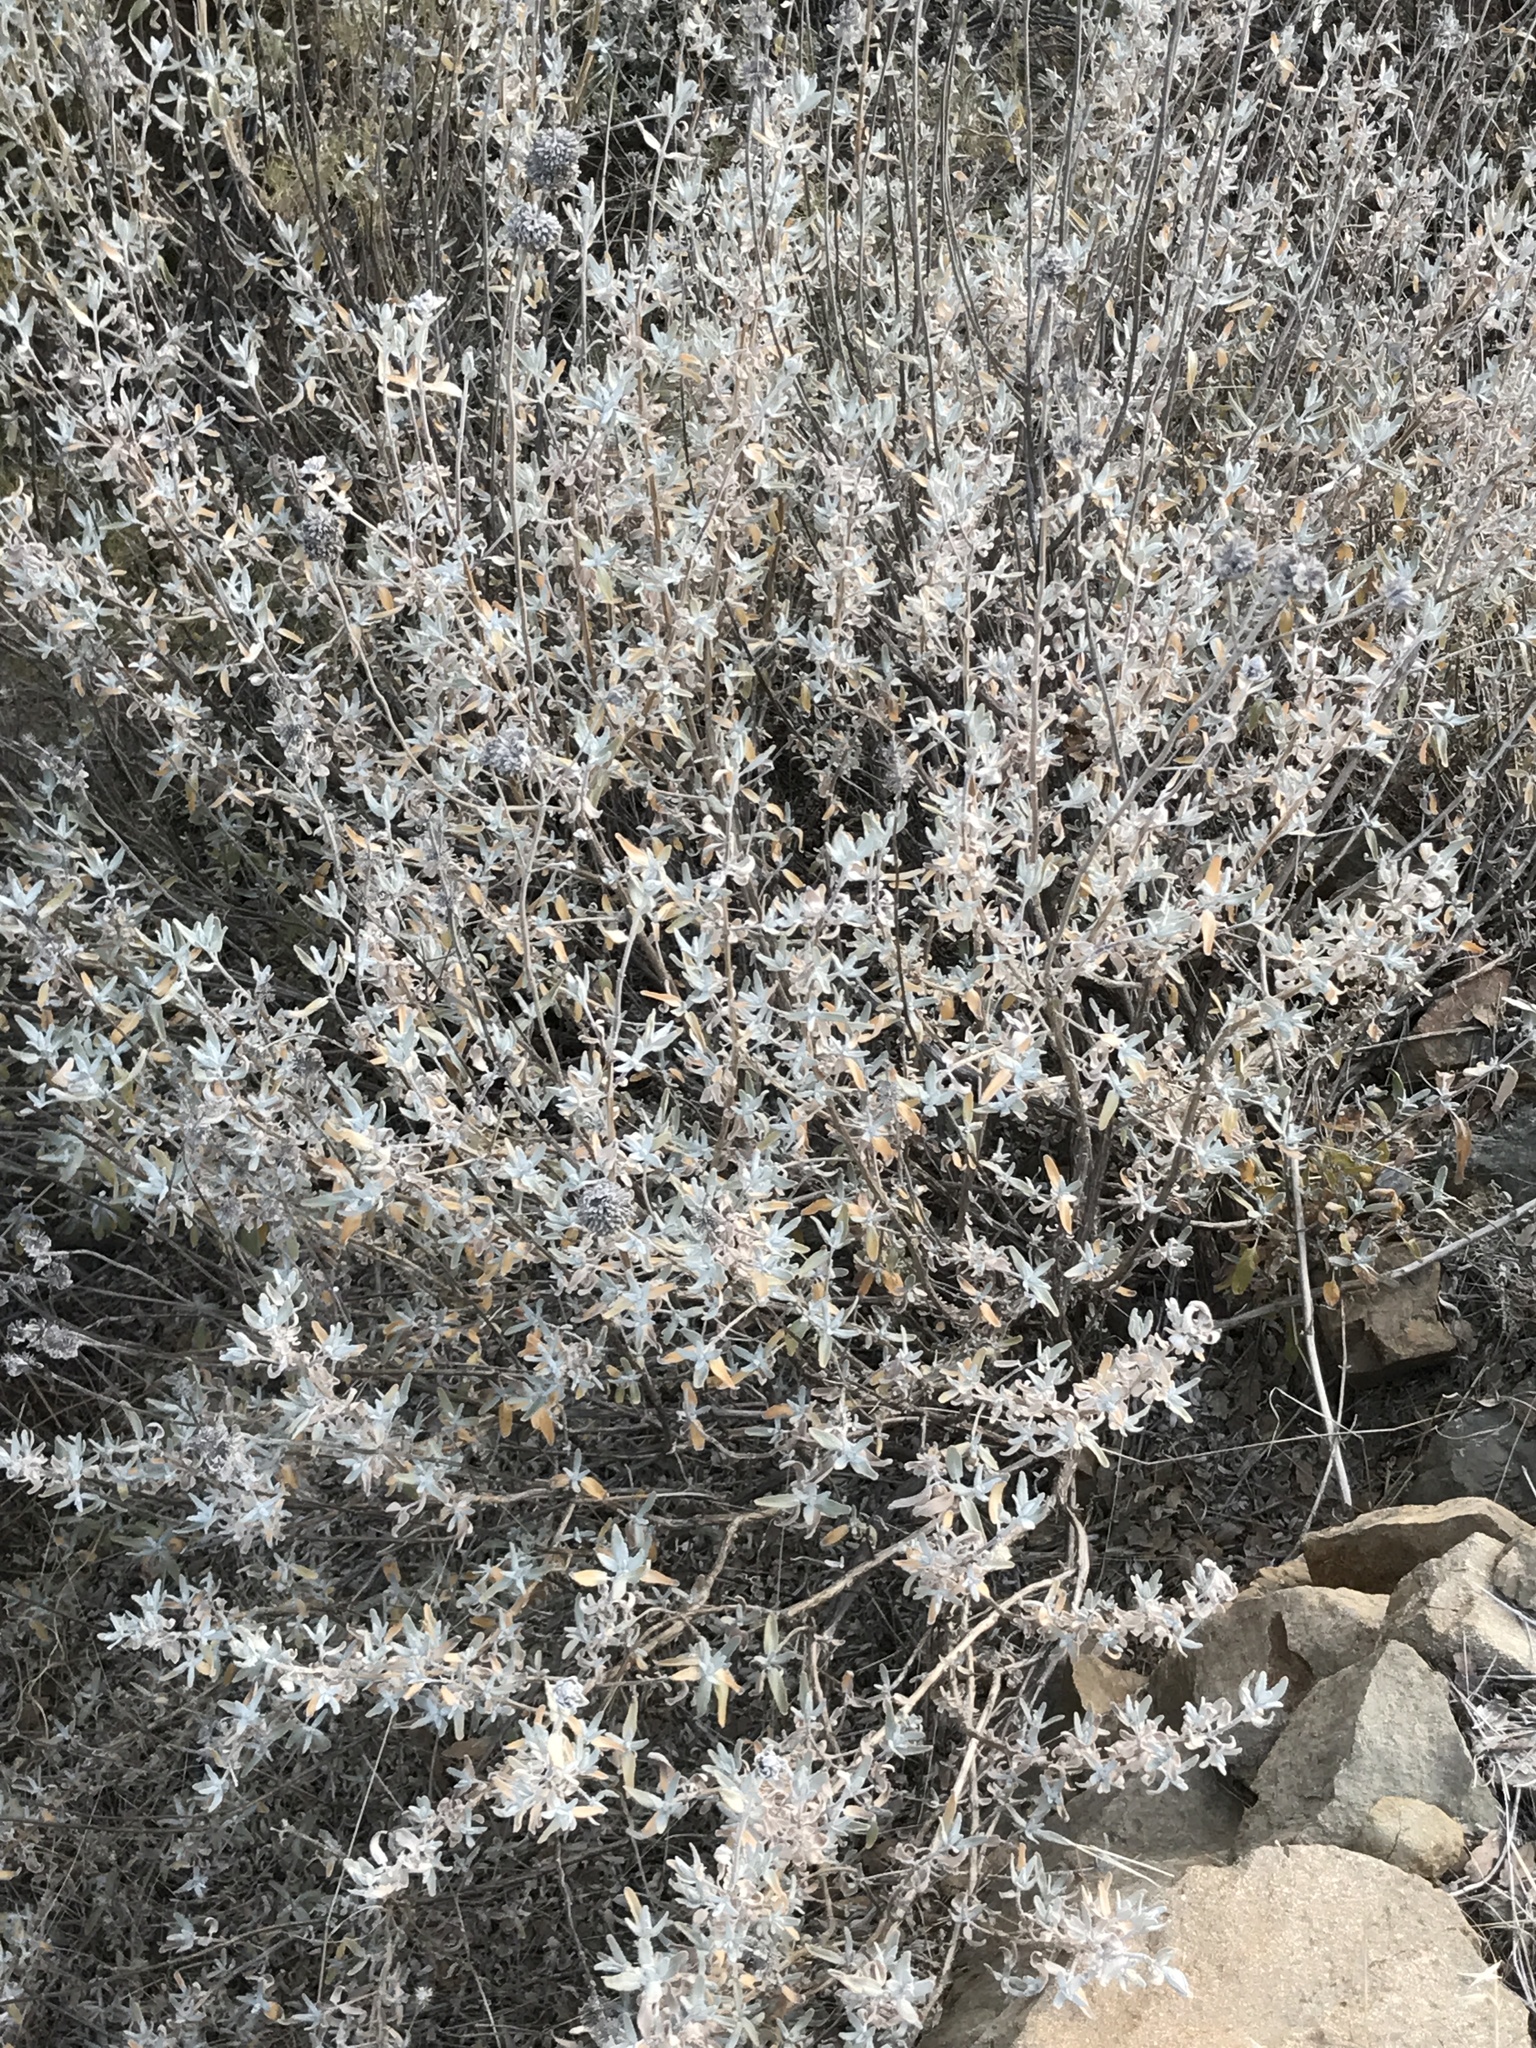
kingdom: Plantae
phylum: Tracheophyta
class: Magnoliopsida
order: Lamiales
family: Lamiaceae
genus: Salvia
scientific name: Salvia leucophylla
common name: Purple sage
